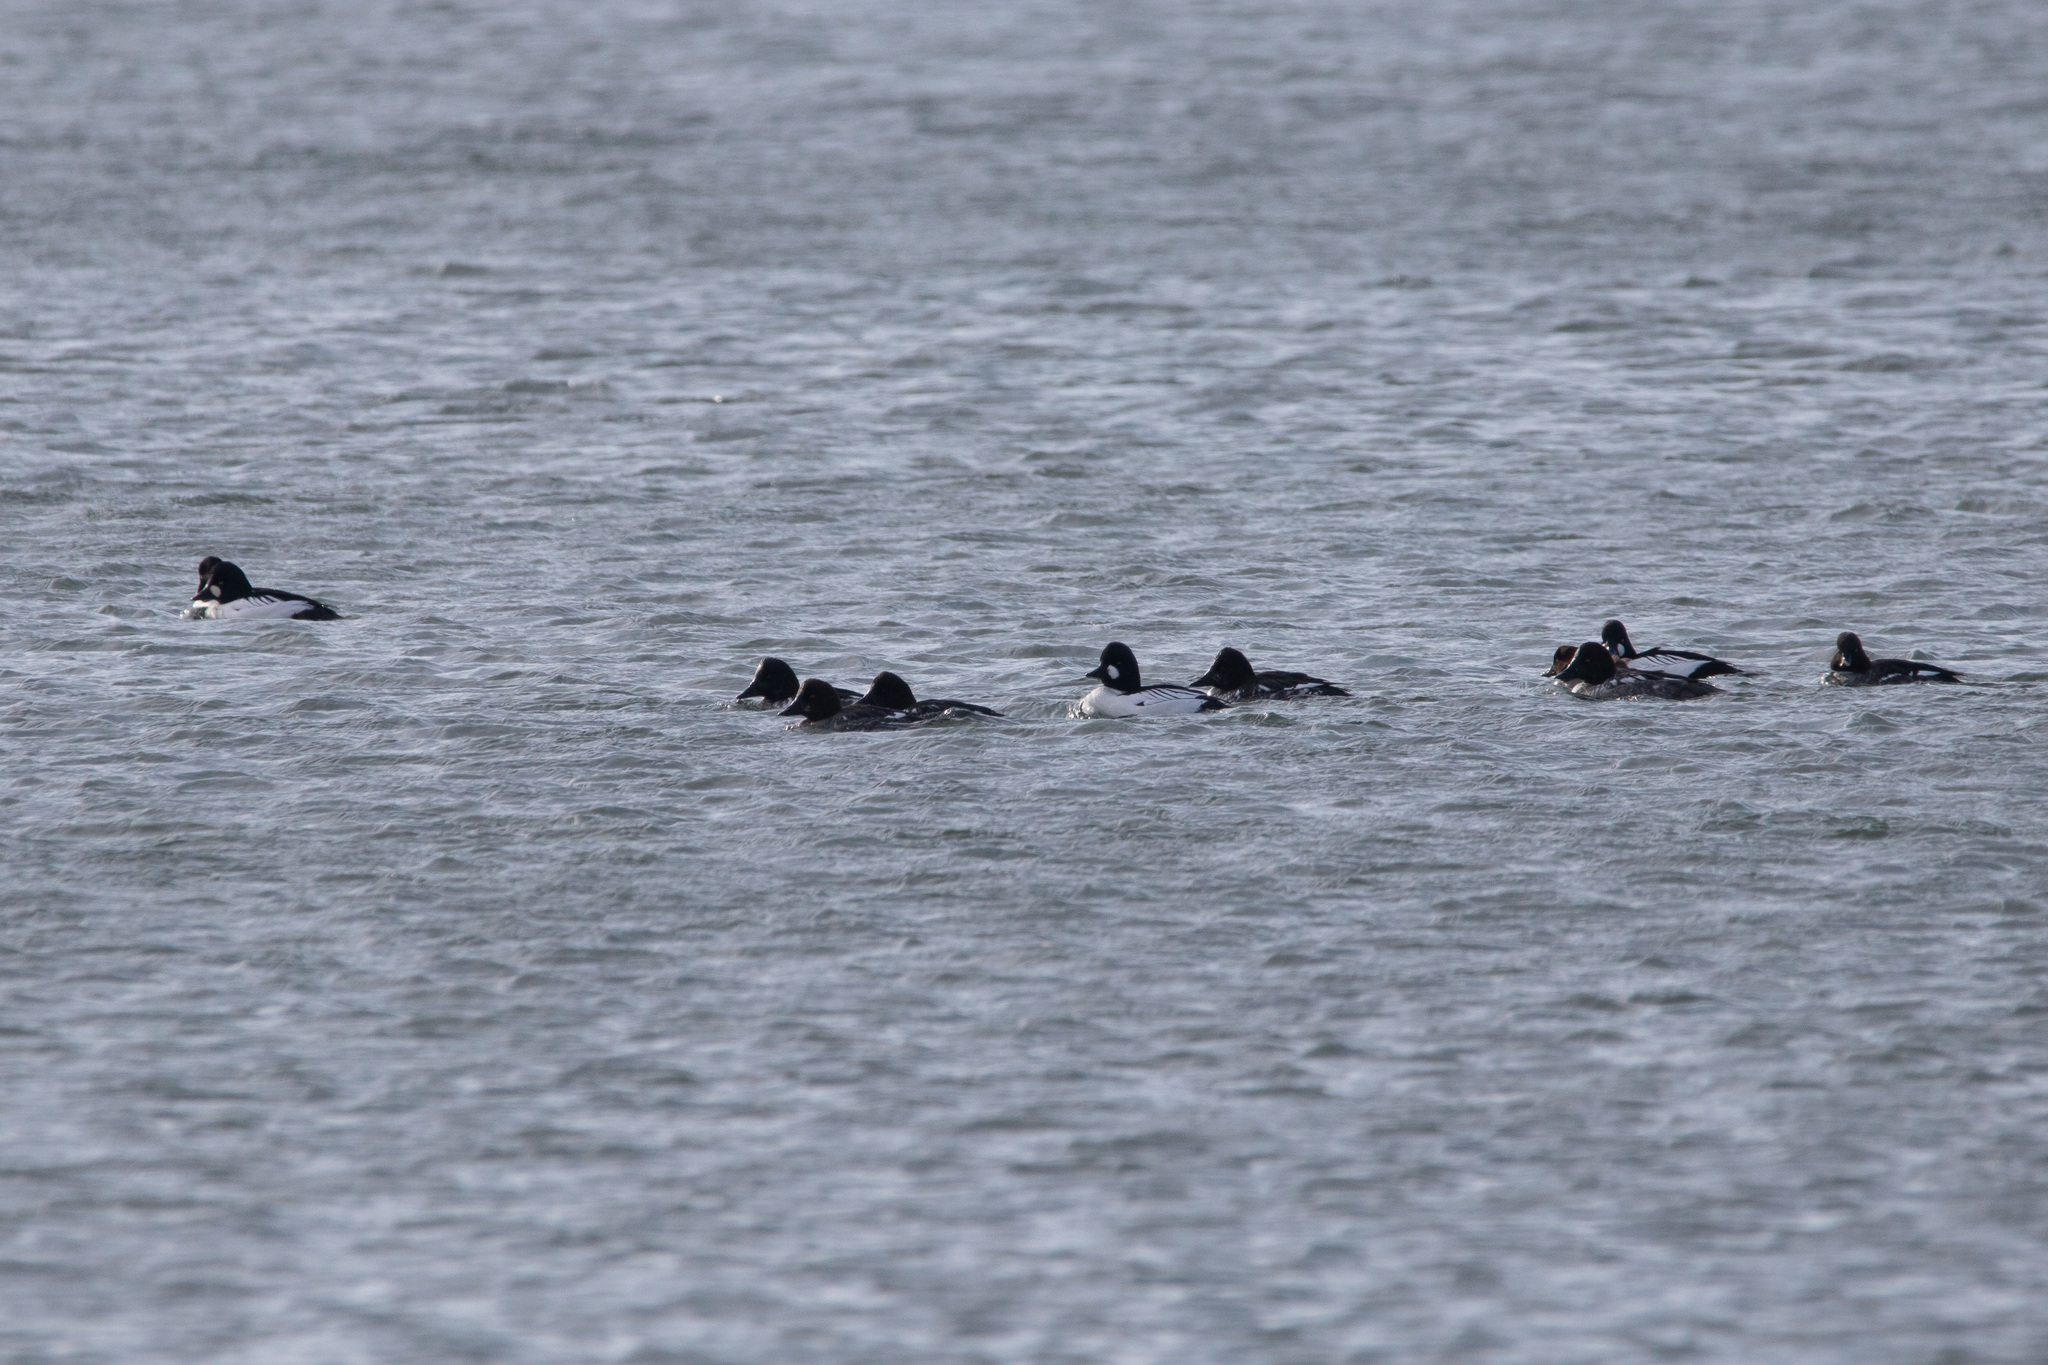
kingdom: Animalia
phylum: Chordata
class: Aves
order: Anseriformes
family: Anatidae
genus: Bucephala
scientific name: Bucephala clangula
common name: Common goldeneye
